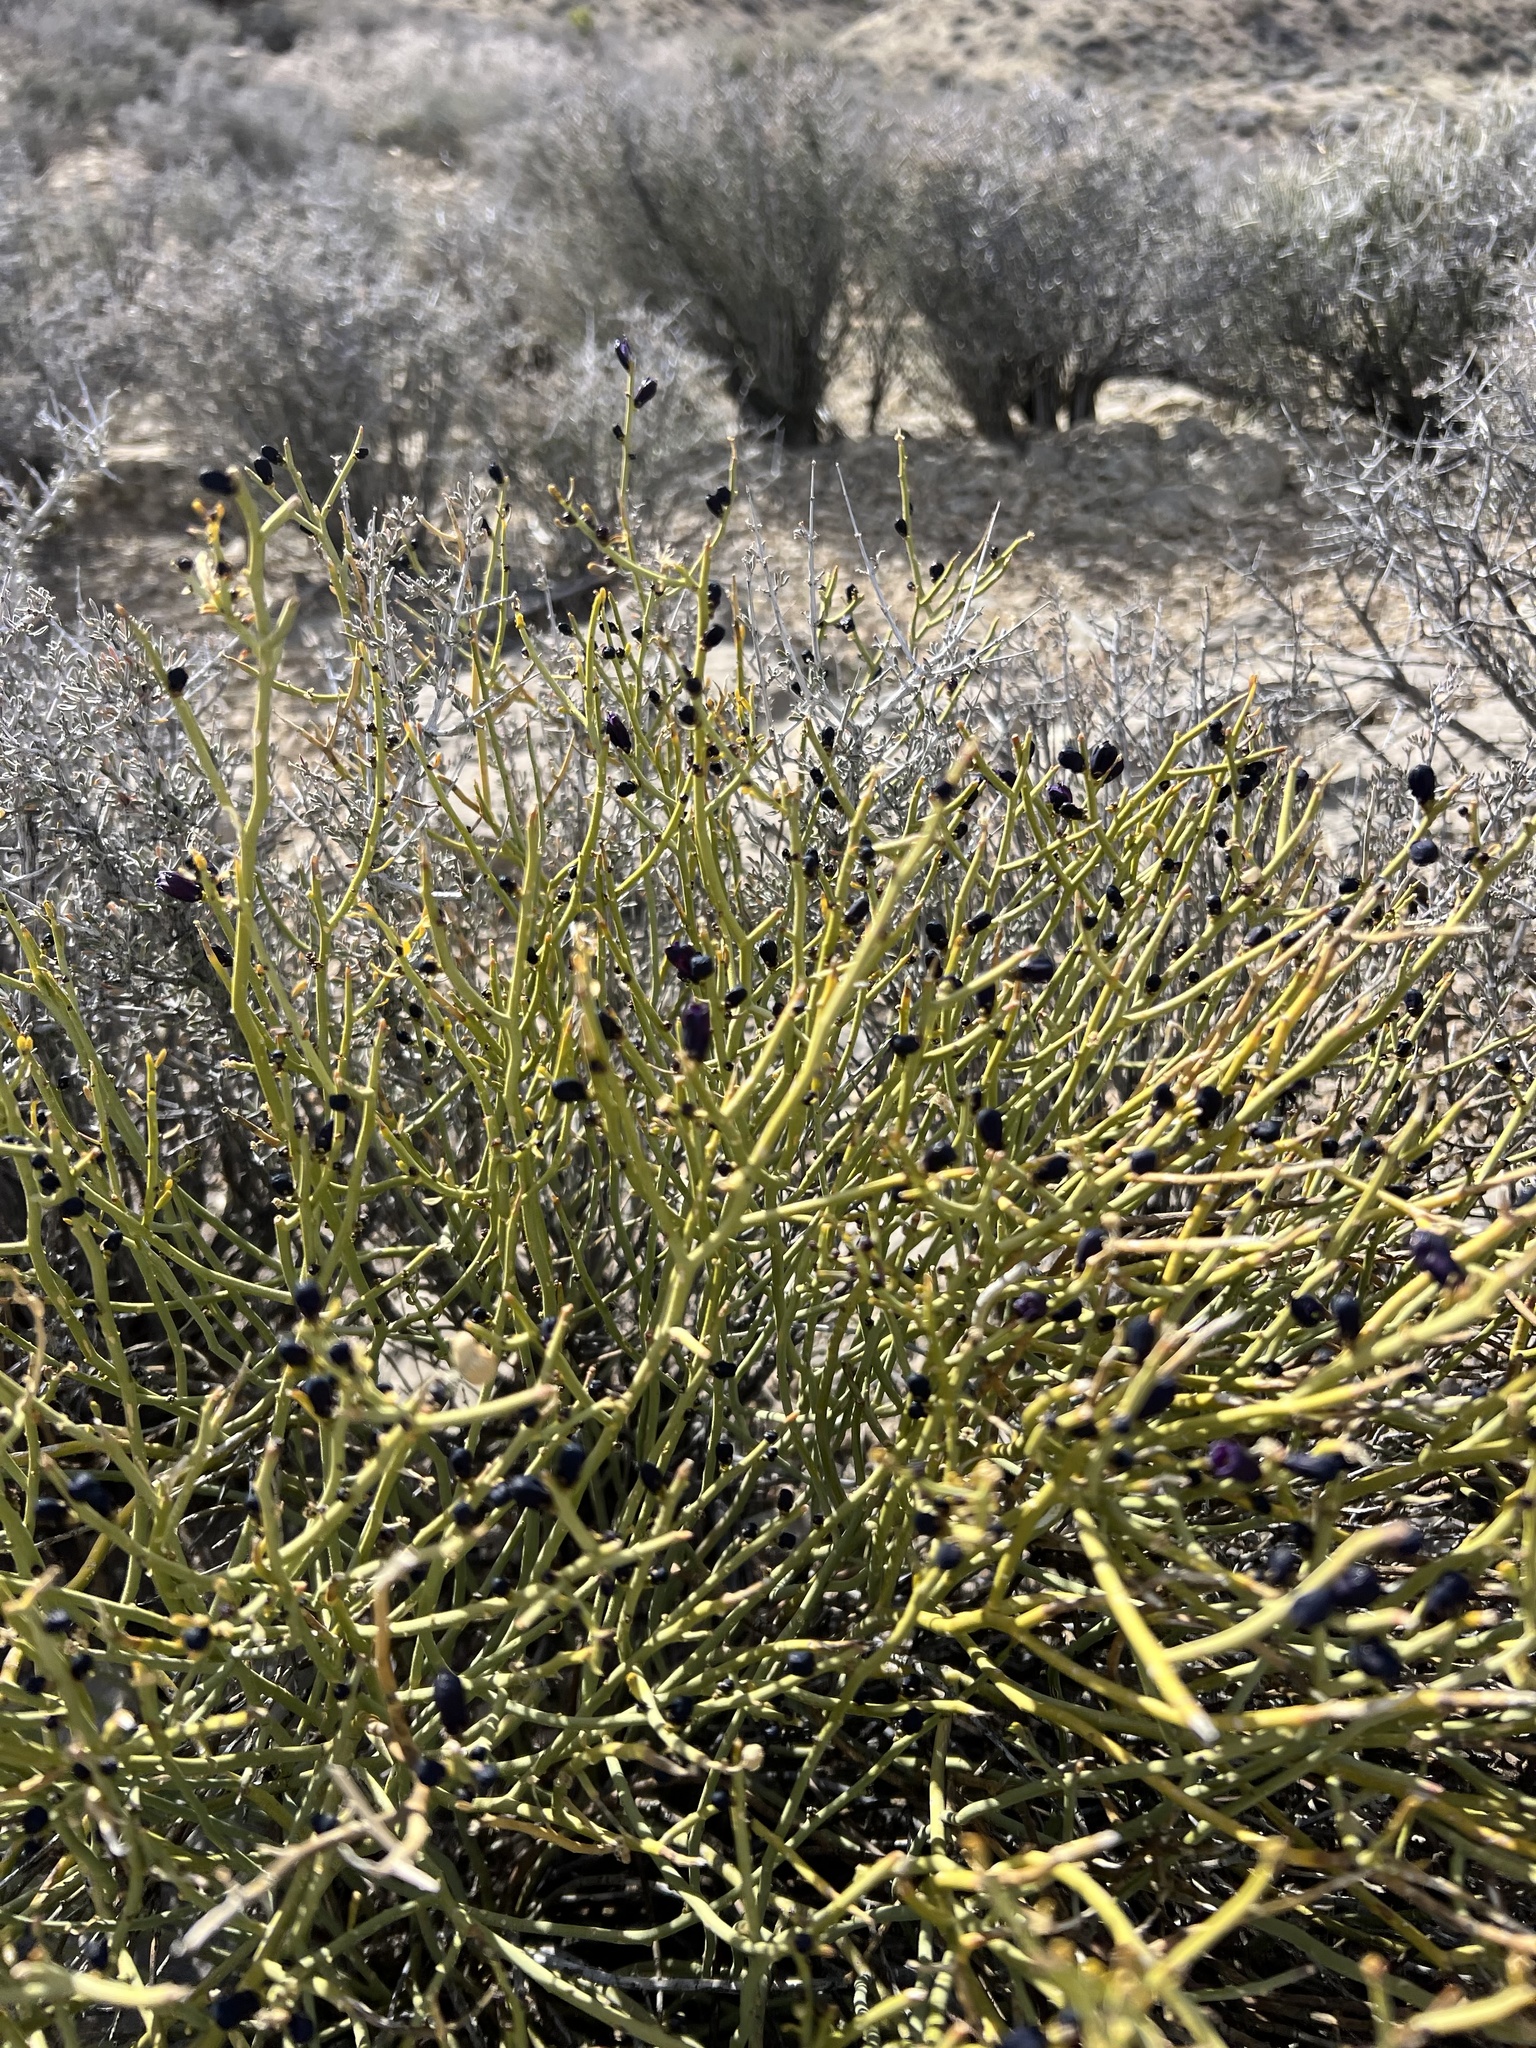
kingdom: Plantae
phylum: Tracheophyta
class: Magnoliopsida
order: Sapindales
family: Rutaceae
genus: Thamnosma
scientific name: Thamnosma montana
